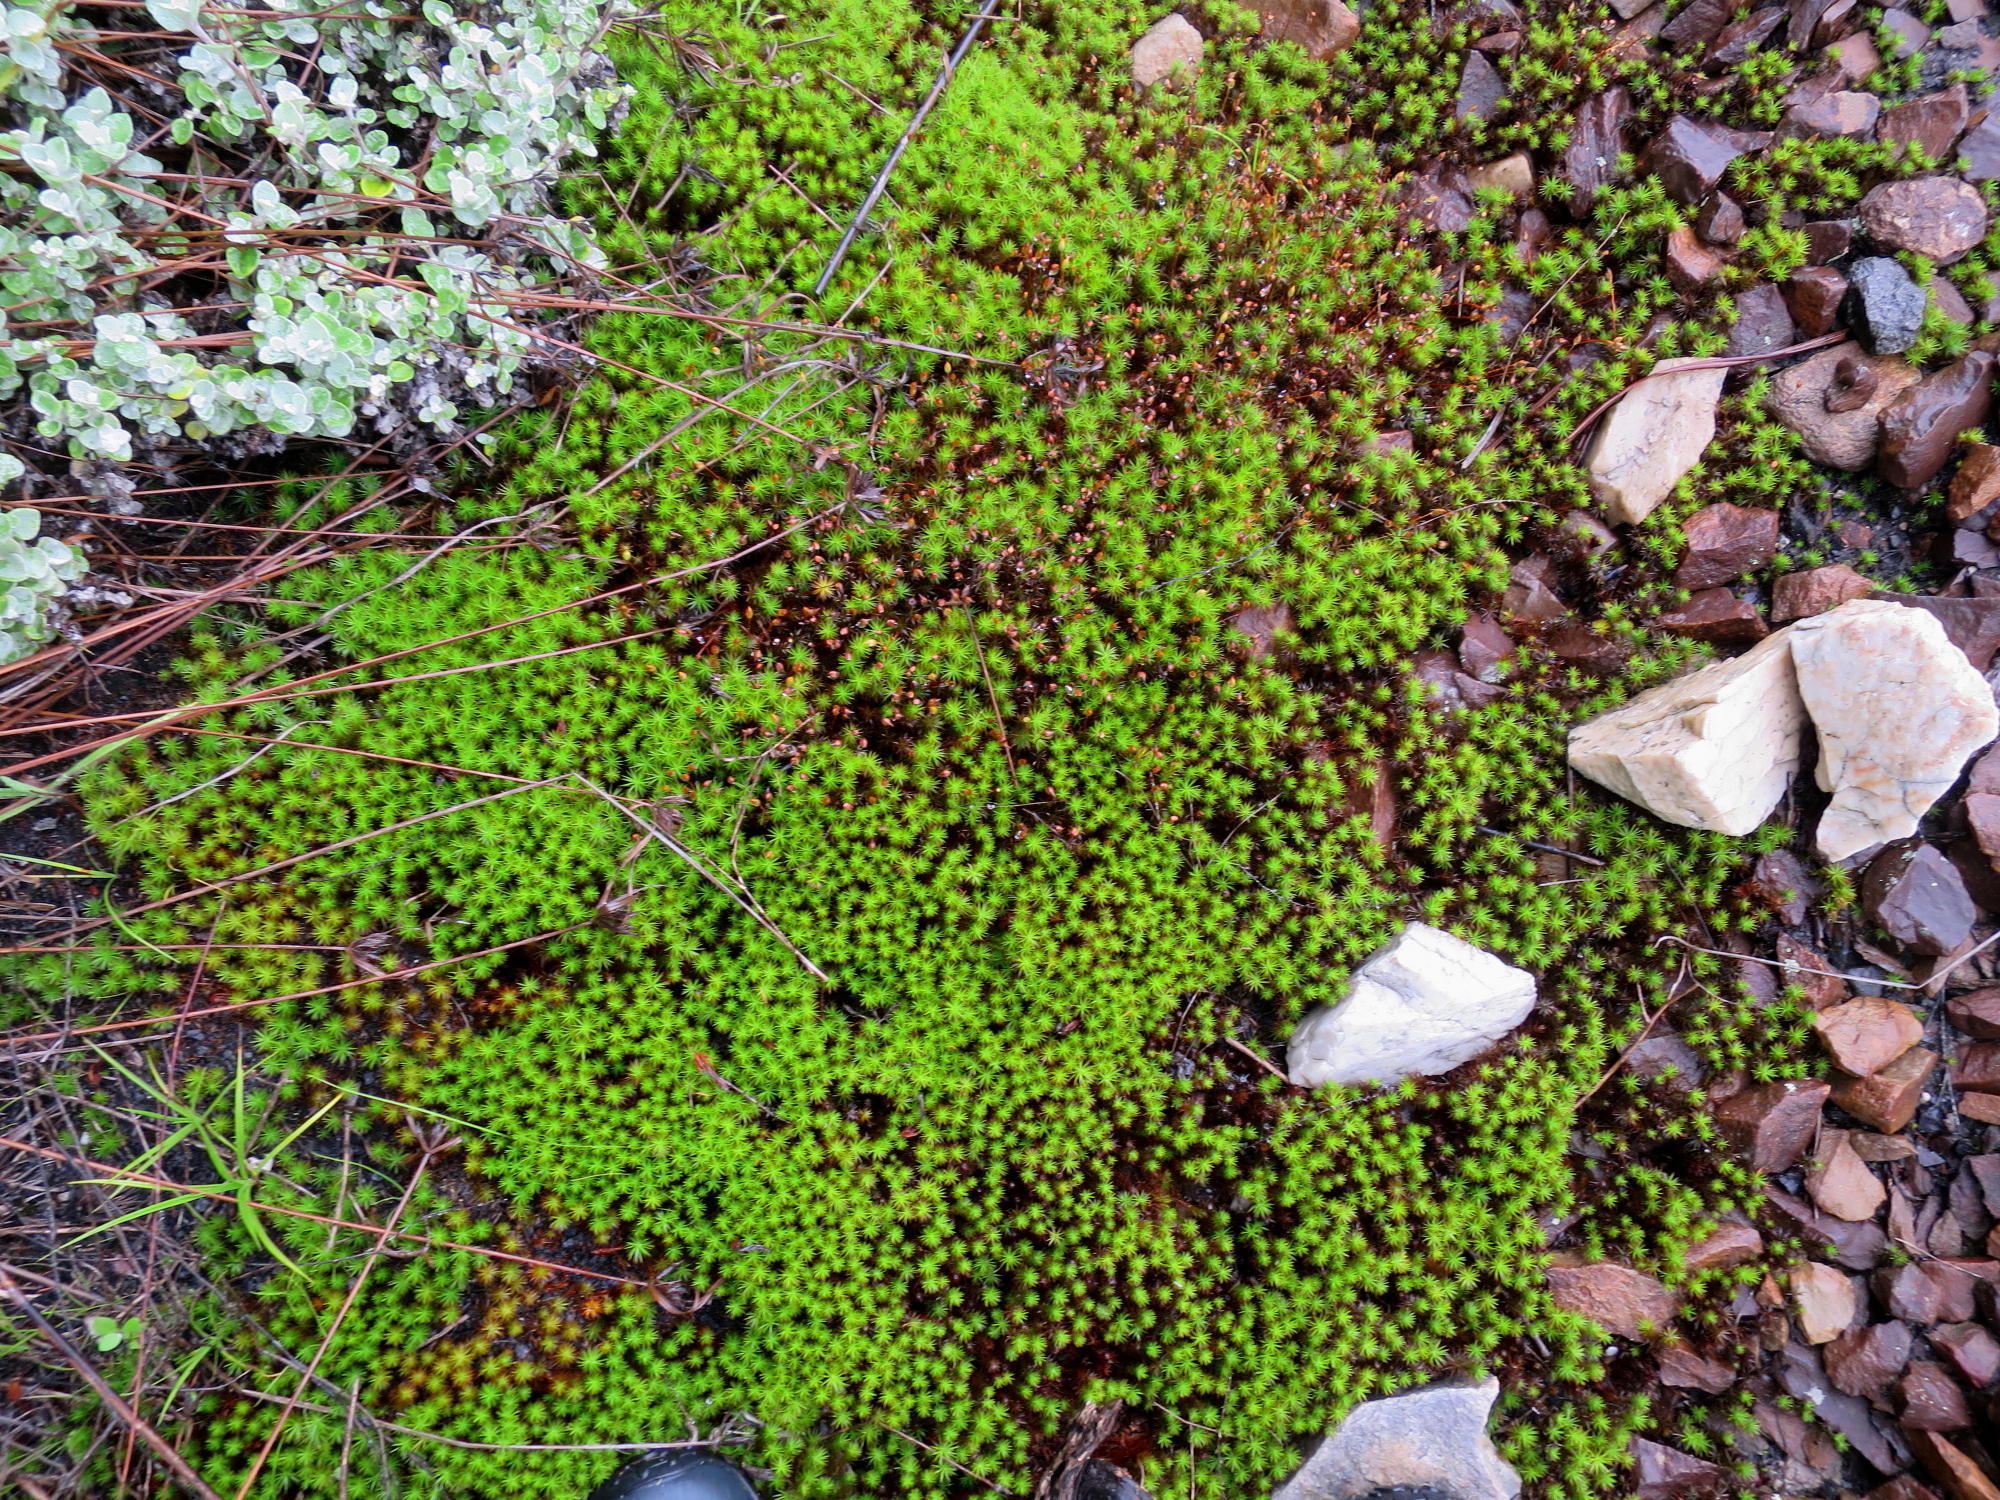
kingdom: Plantae
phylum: Bryophyta
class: Polytrichopsida
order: Polytrichales
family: Polytrichaceae
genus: Polytrichum
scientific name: Polytrichum commune
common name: Common haircap
